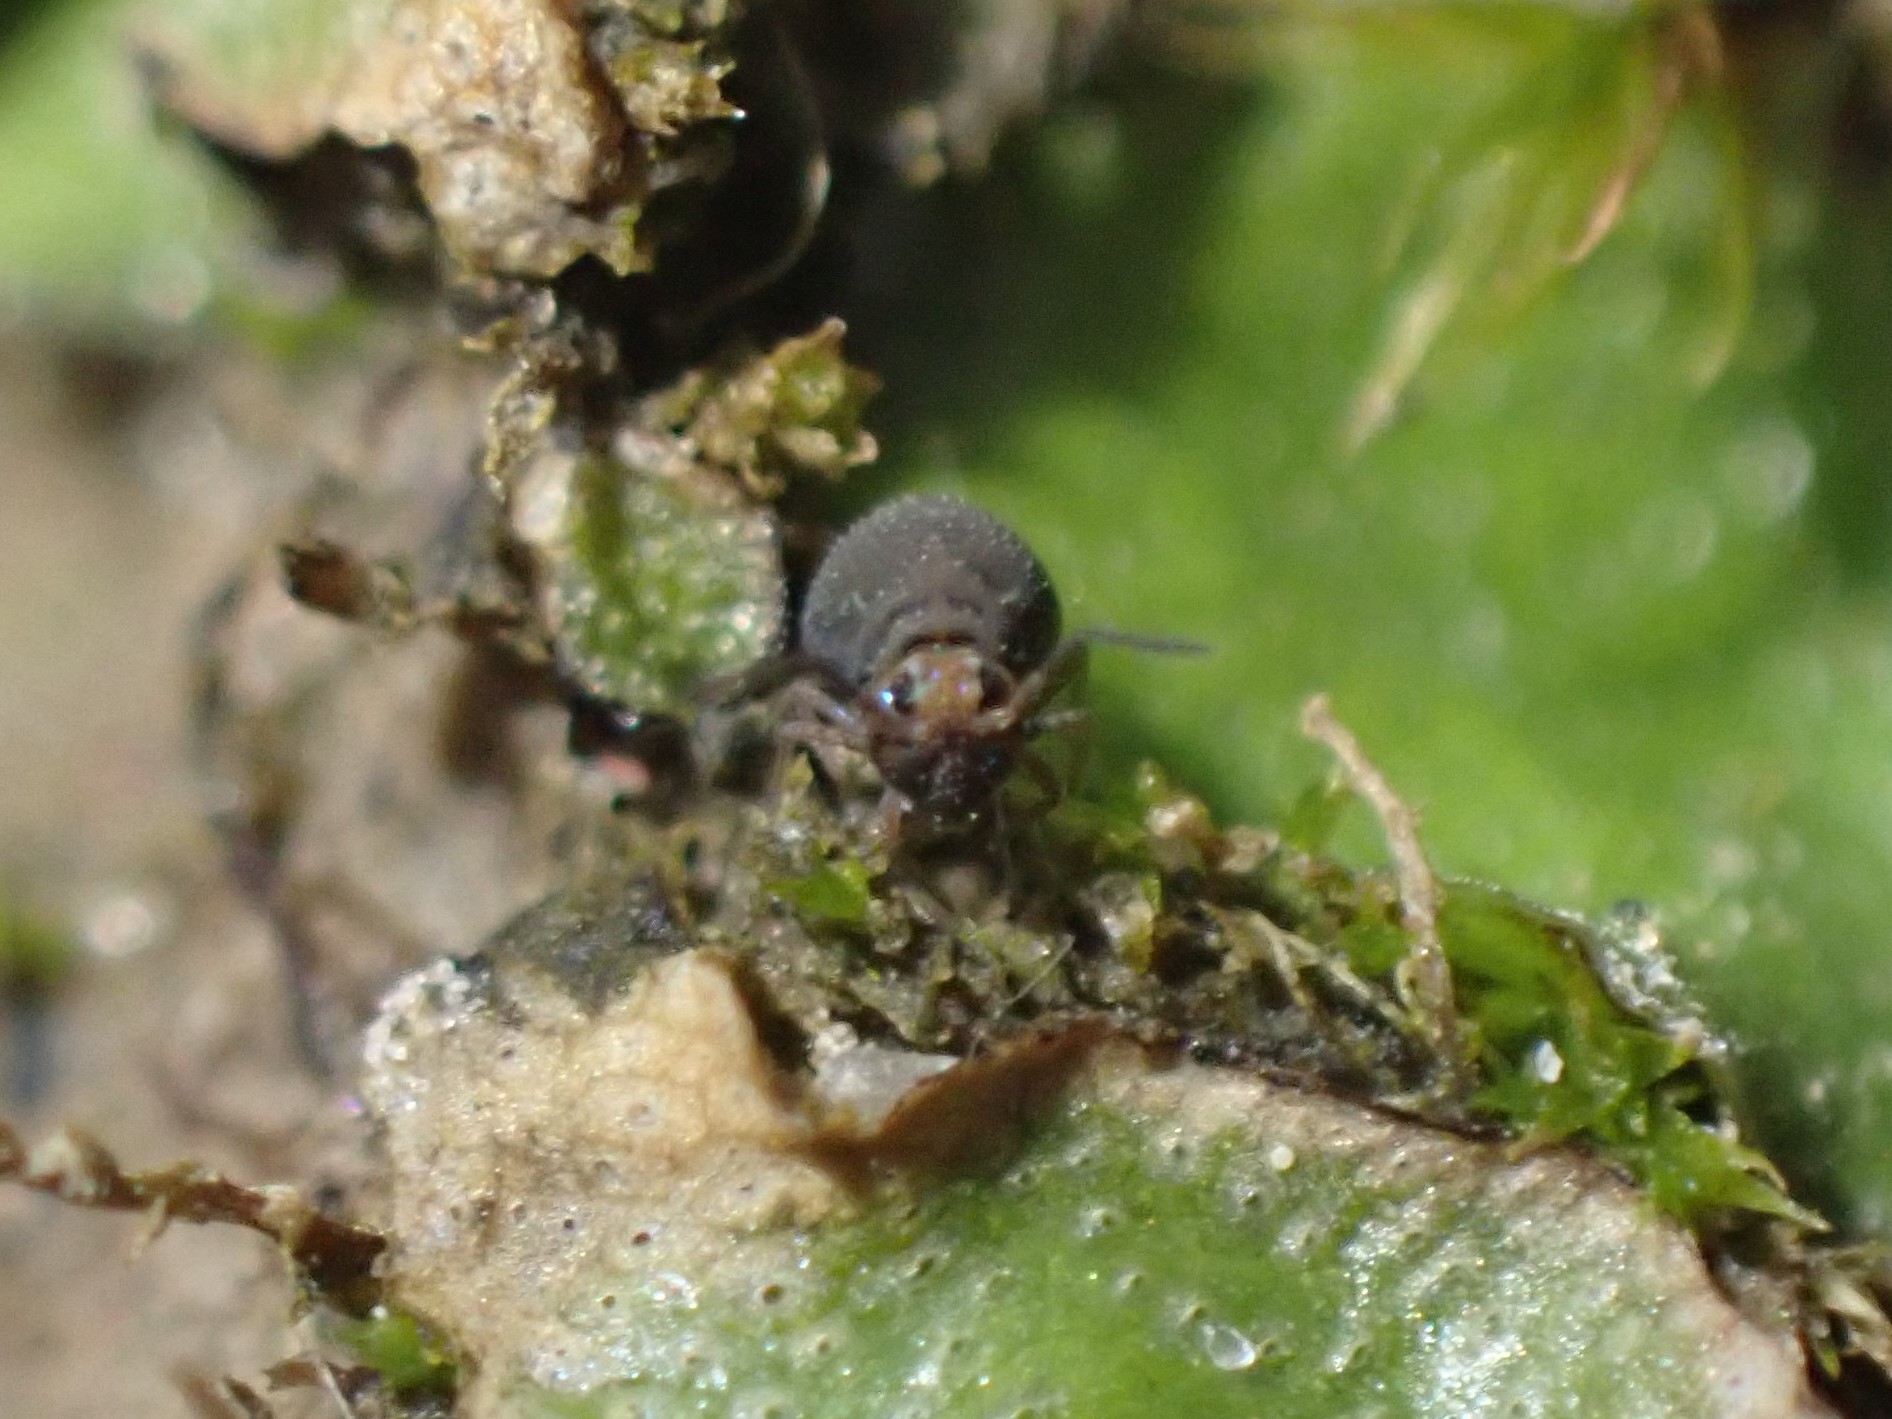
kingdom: Animalia
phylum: Arthropoda
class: Collembola
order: Symphypleona
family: Bourletiellidae
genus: Bourletiella
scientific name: Bourletiella hortensis
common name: Garden springtail
